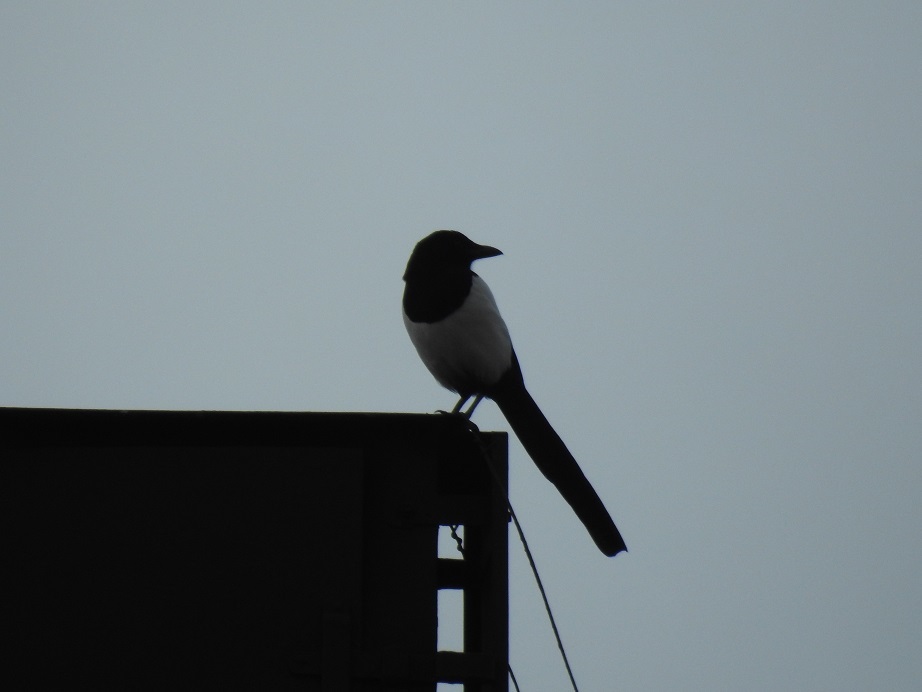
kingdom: Animalia
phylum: Chordata
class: Aves
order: Passeriformes
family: Corvidae
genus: Pica
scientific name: Pica pica
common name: Eurasian magpie
